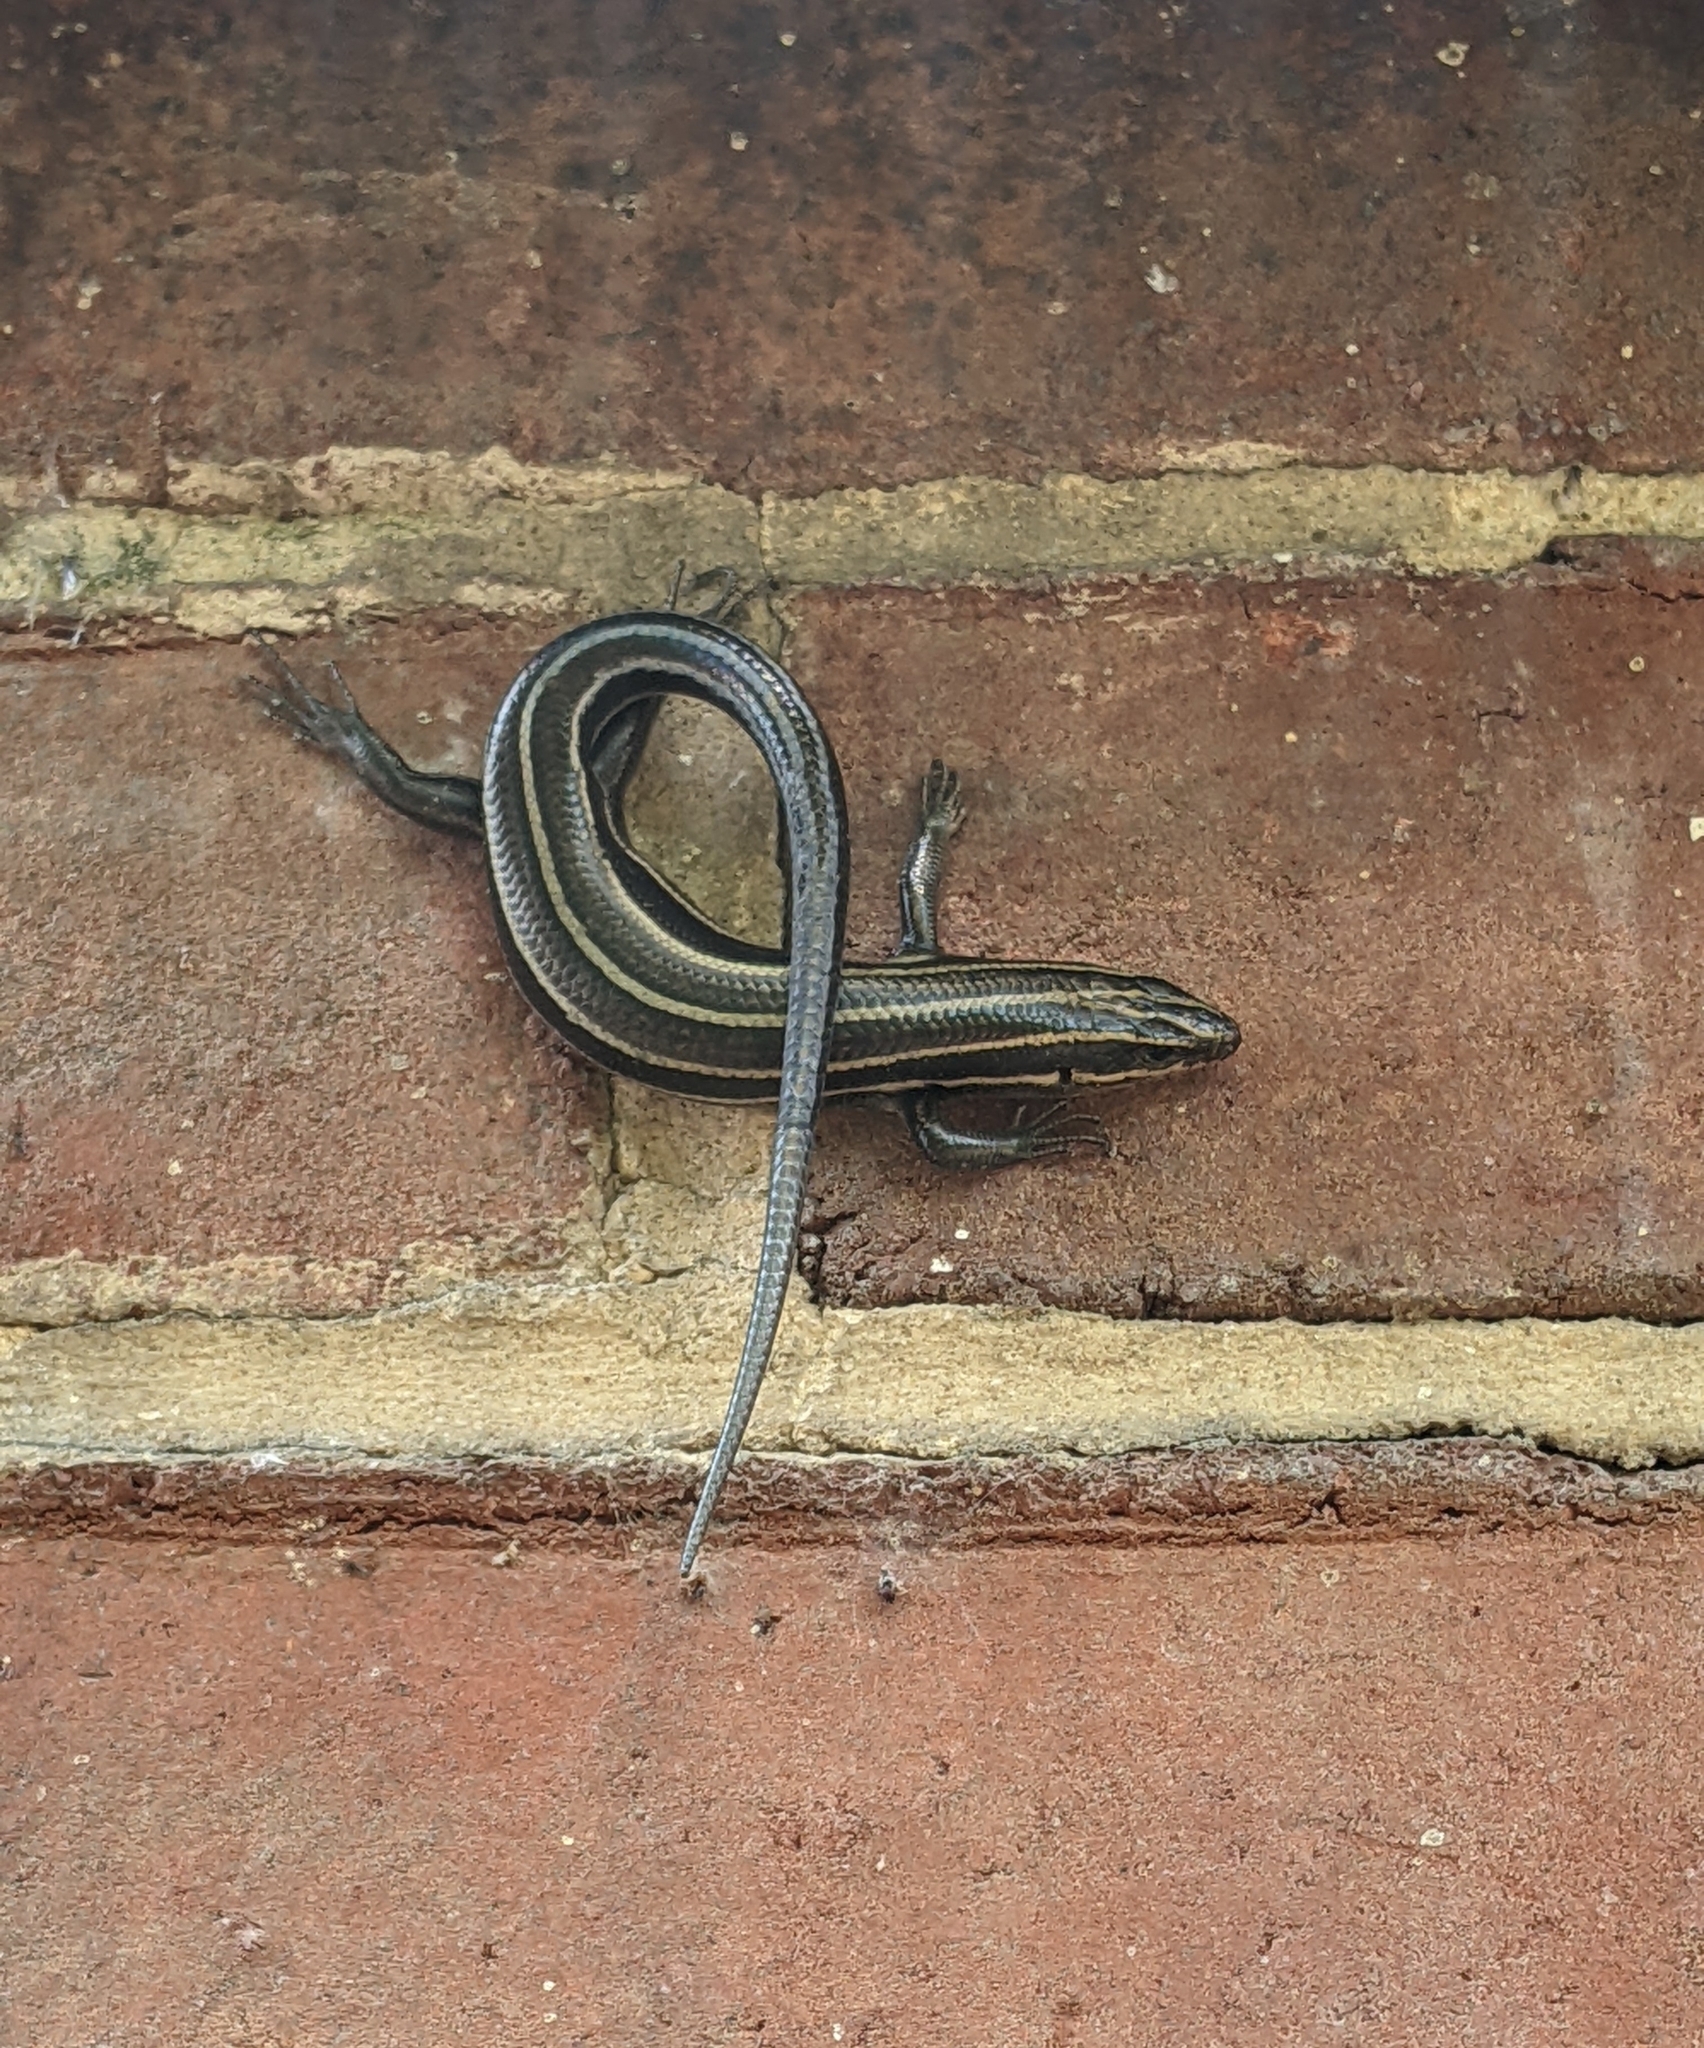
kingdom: Animalia
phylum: Chordata
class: Squamata
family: Scincidae
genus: Plestiodon
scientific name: Plestiodon fasciatus
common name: Five-lined skink
